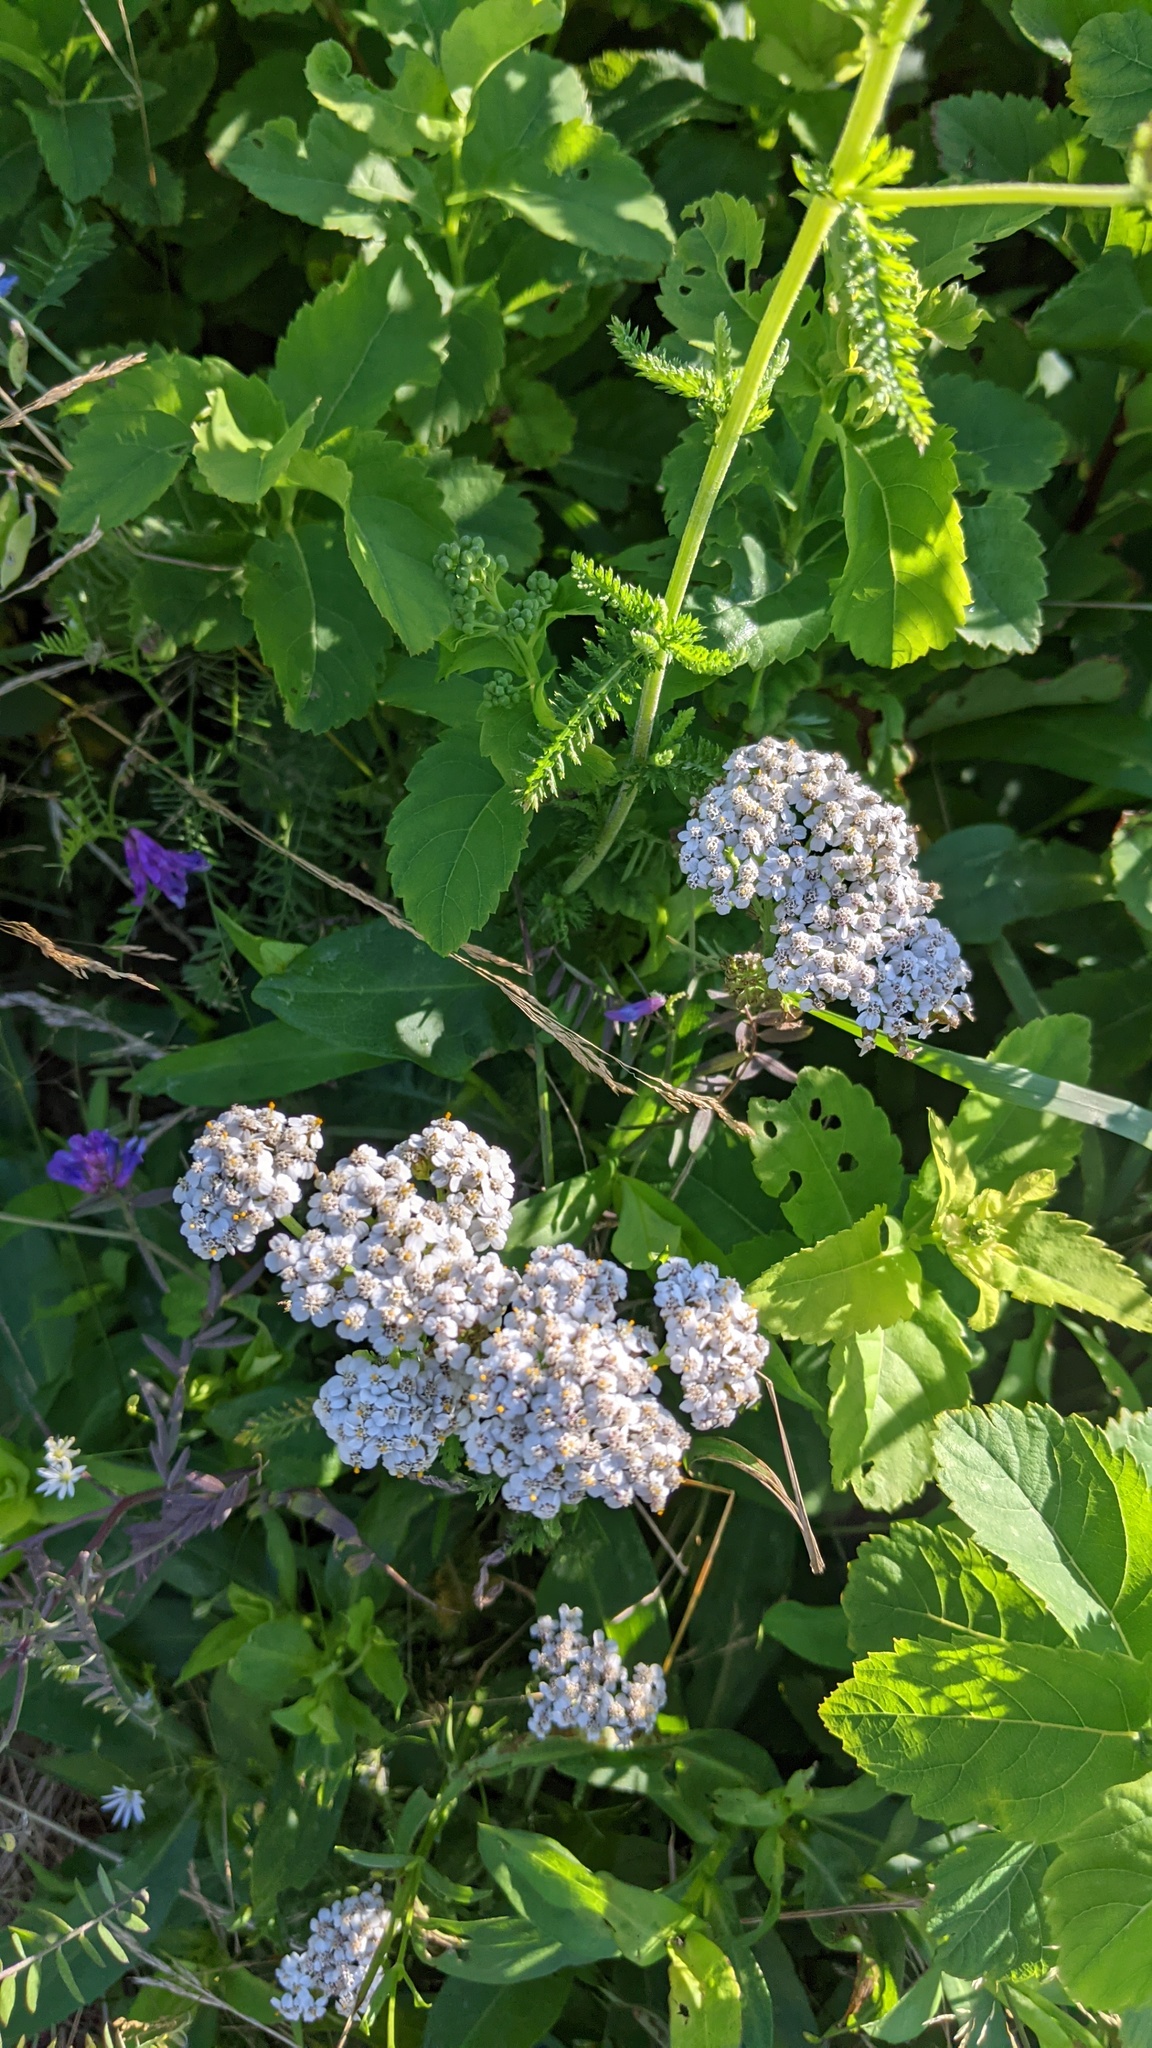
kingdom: Plantae
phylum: Tracheophyta
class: Magnoliopsida
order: Asterales
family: Asteraceae
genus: Achillea
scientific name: Achillea millefolium
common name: Yarrow
